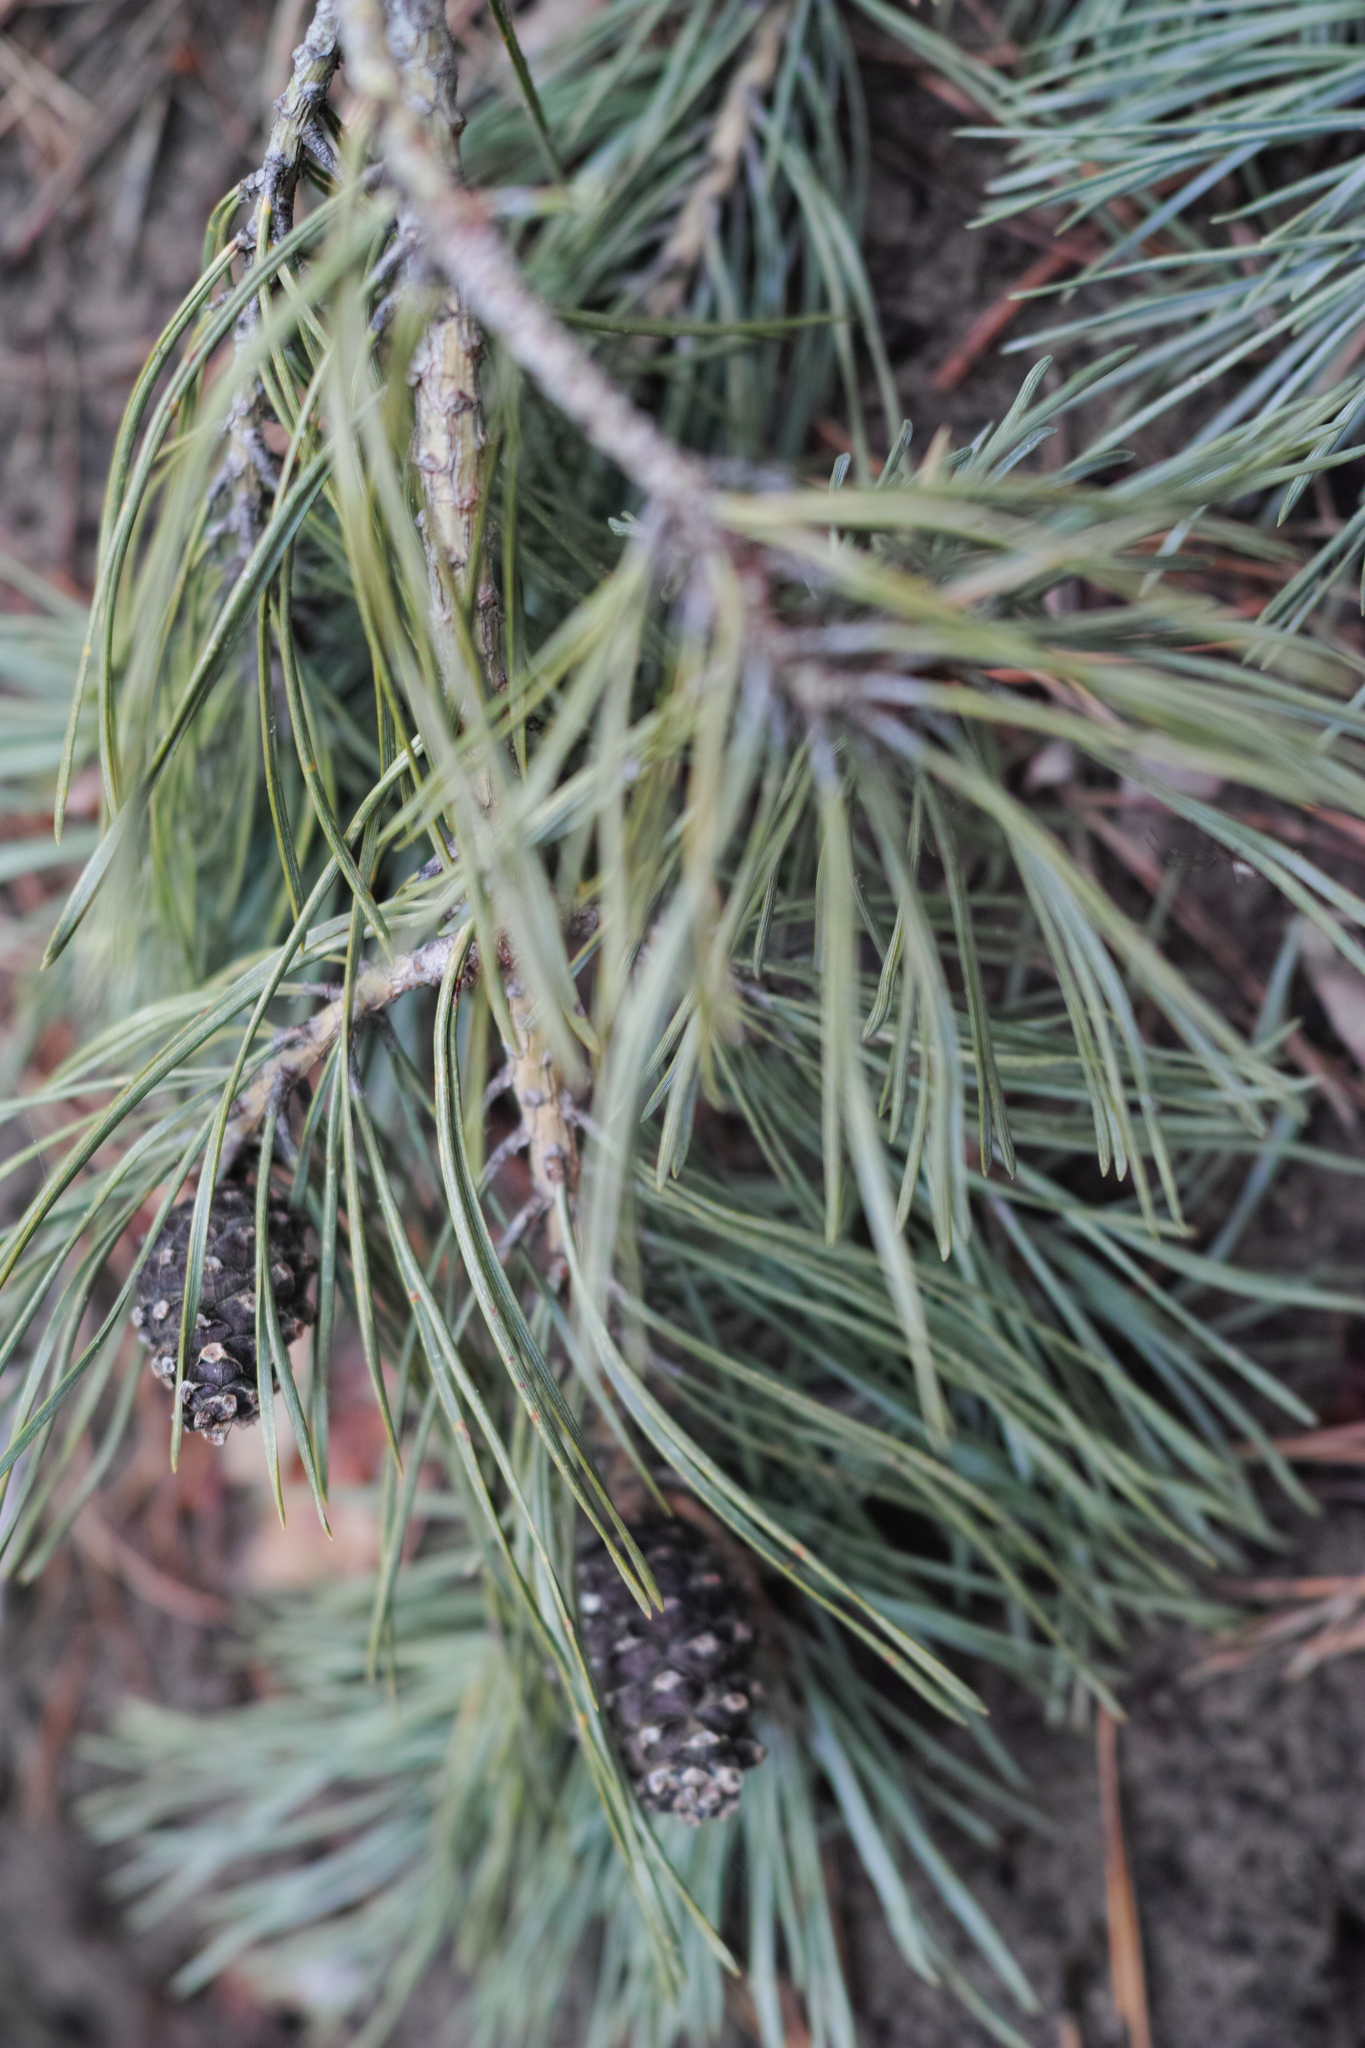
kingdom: Plantae
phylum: Tracheophyta
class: Pinopsida
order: Pinales
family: Pinaceae
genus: Pinus
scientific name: Pinus sylvestris
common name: Scots pine
